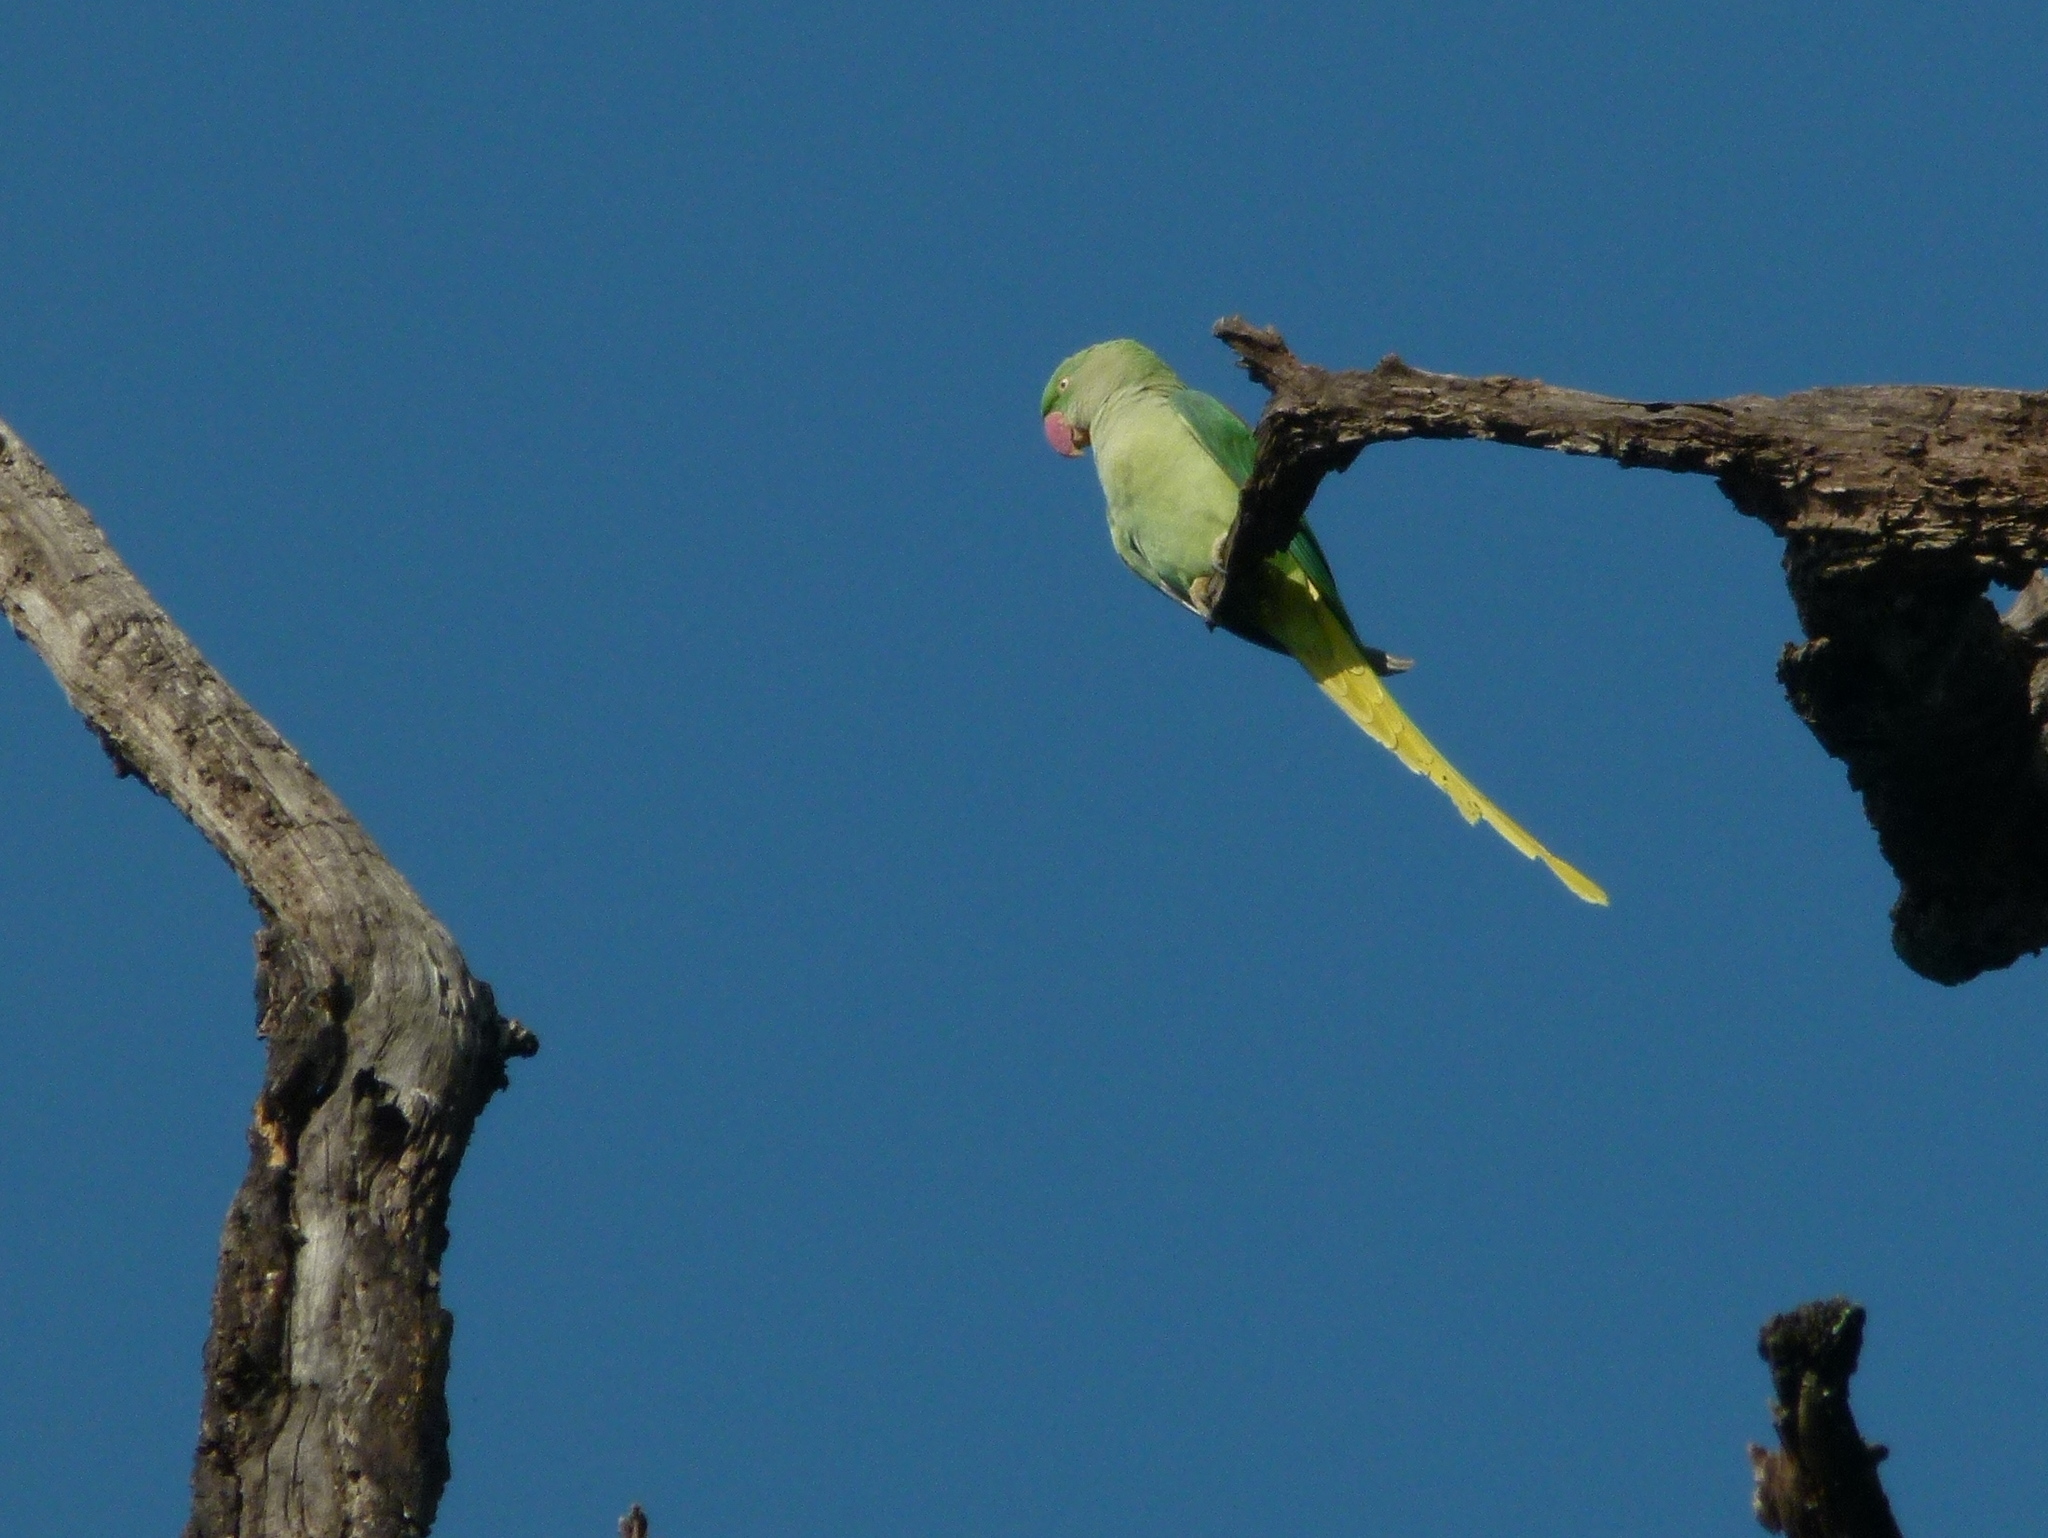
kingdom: Animalia
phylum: Chordata
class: Aves
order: Psittaciformes
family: Psittacidae
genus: Psittacula
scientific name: Psittacula eupatria
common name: Alexandrine parakeet
